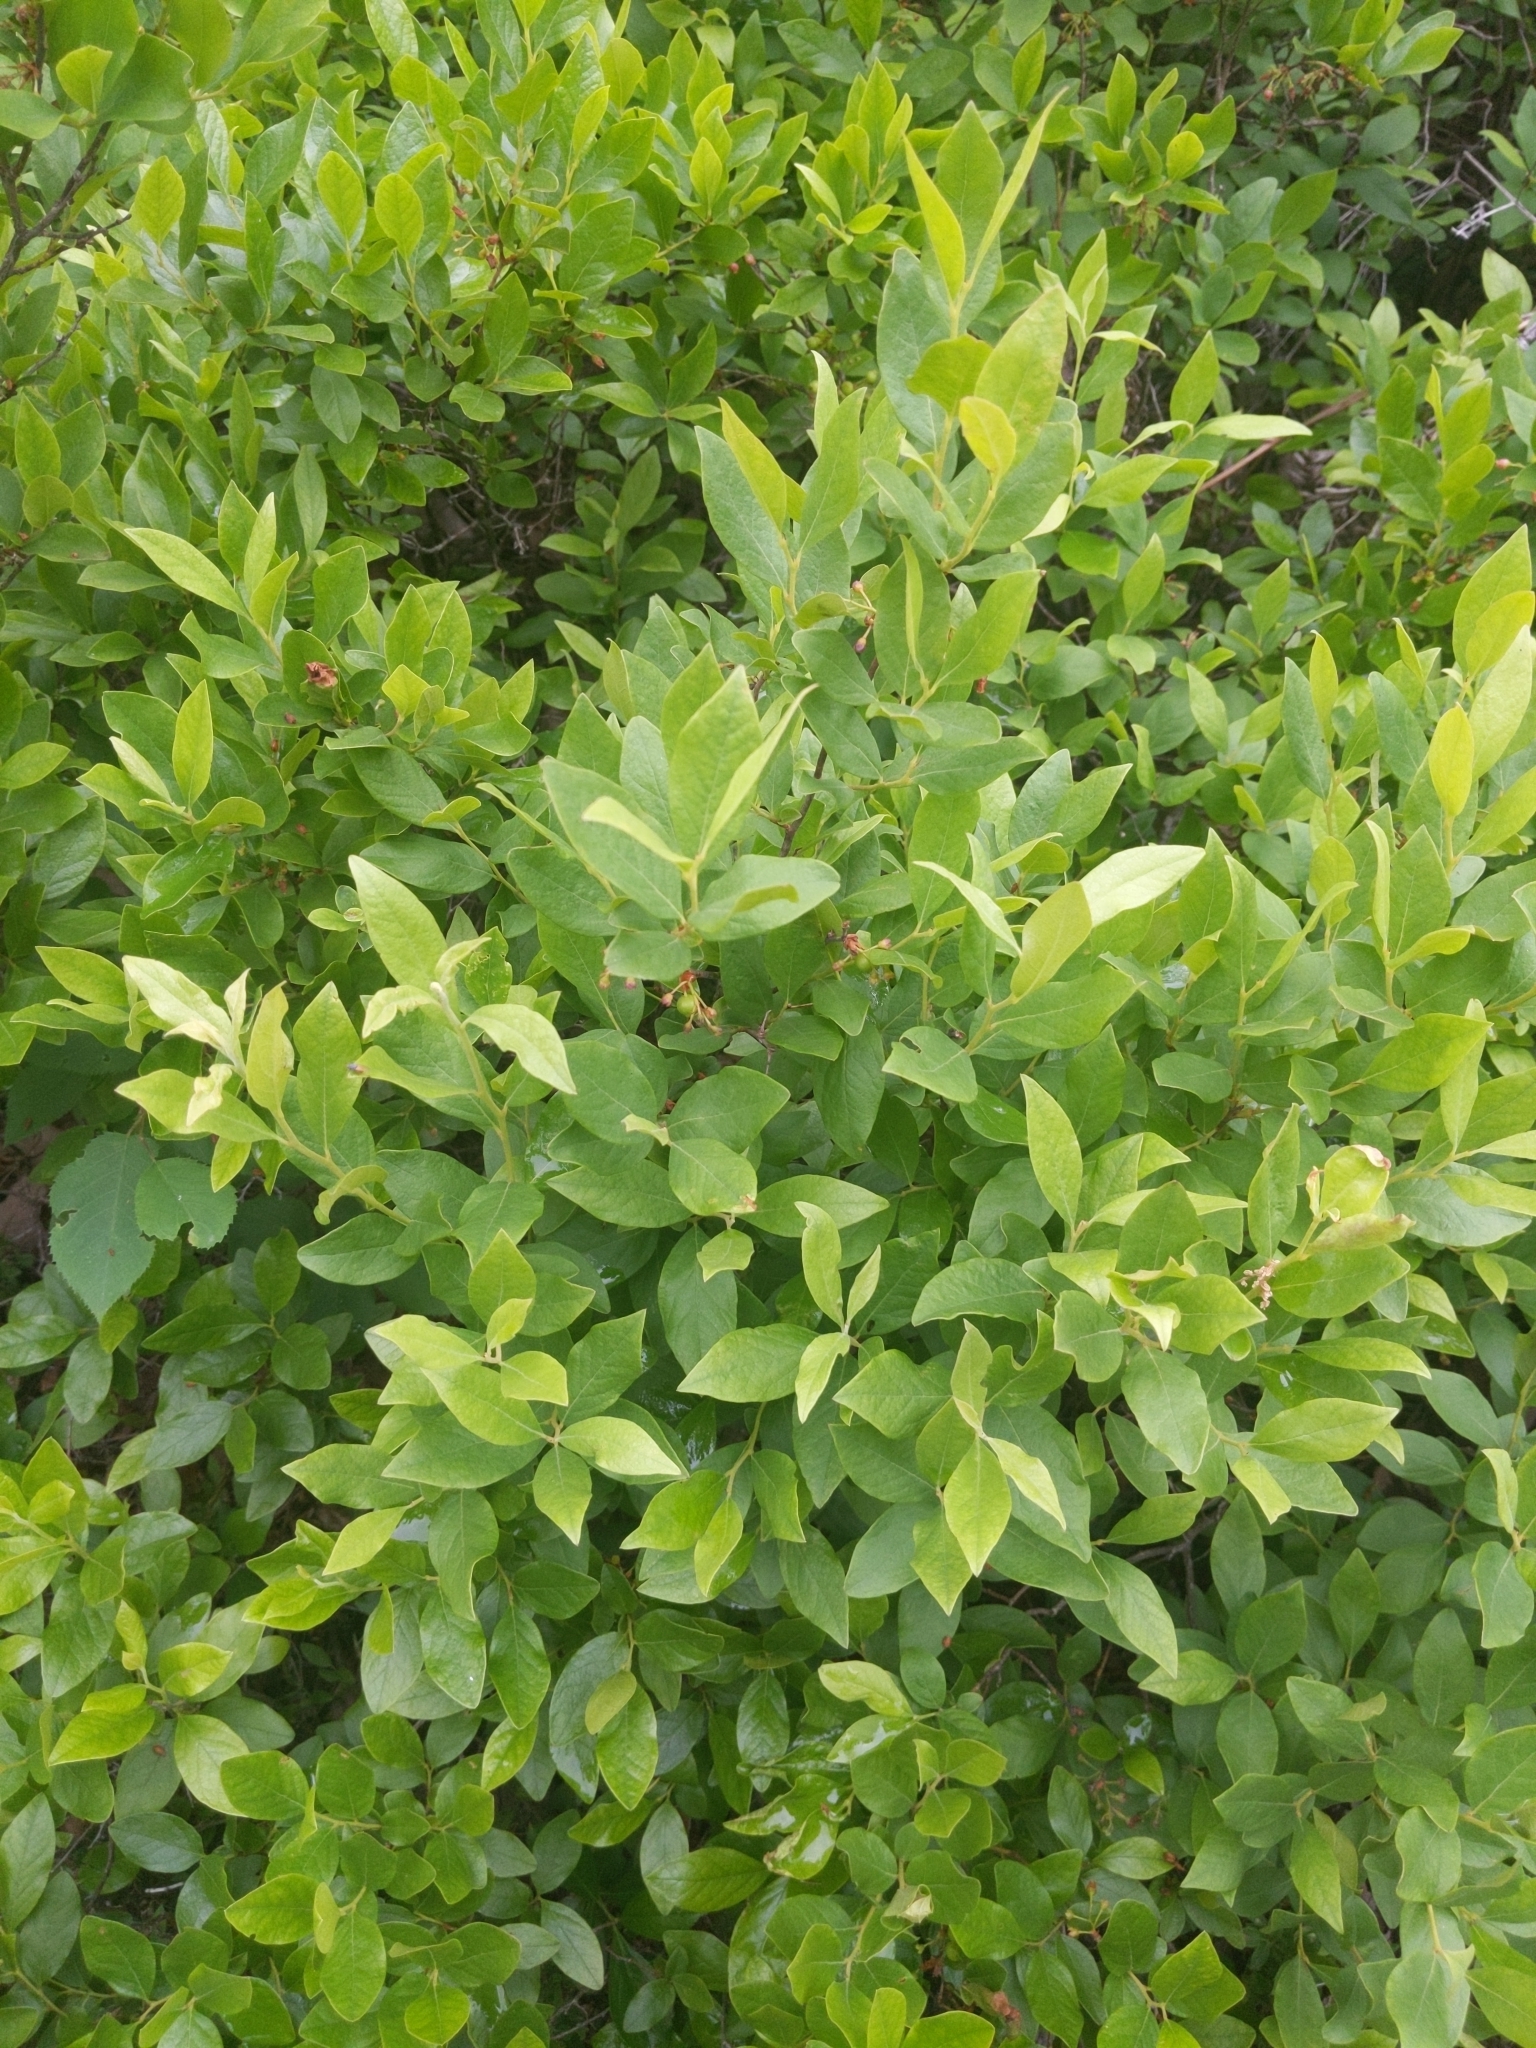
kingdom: Plantae
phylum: Tracheophyta
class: Magnoliopsida
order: Ericales
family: Ericaceae
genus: Gaylussacia
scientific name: Gaylussacia baccata
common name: Black huckleberry
